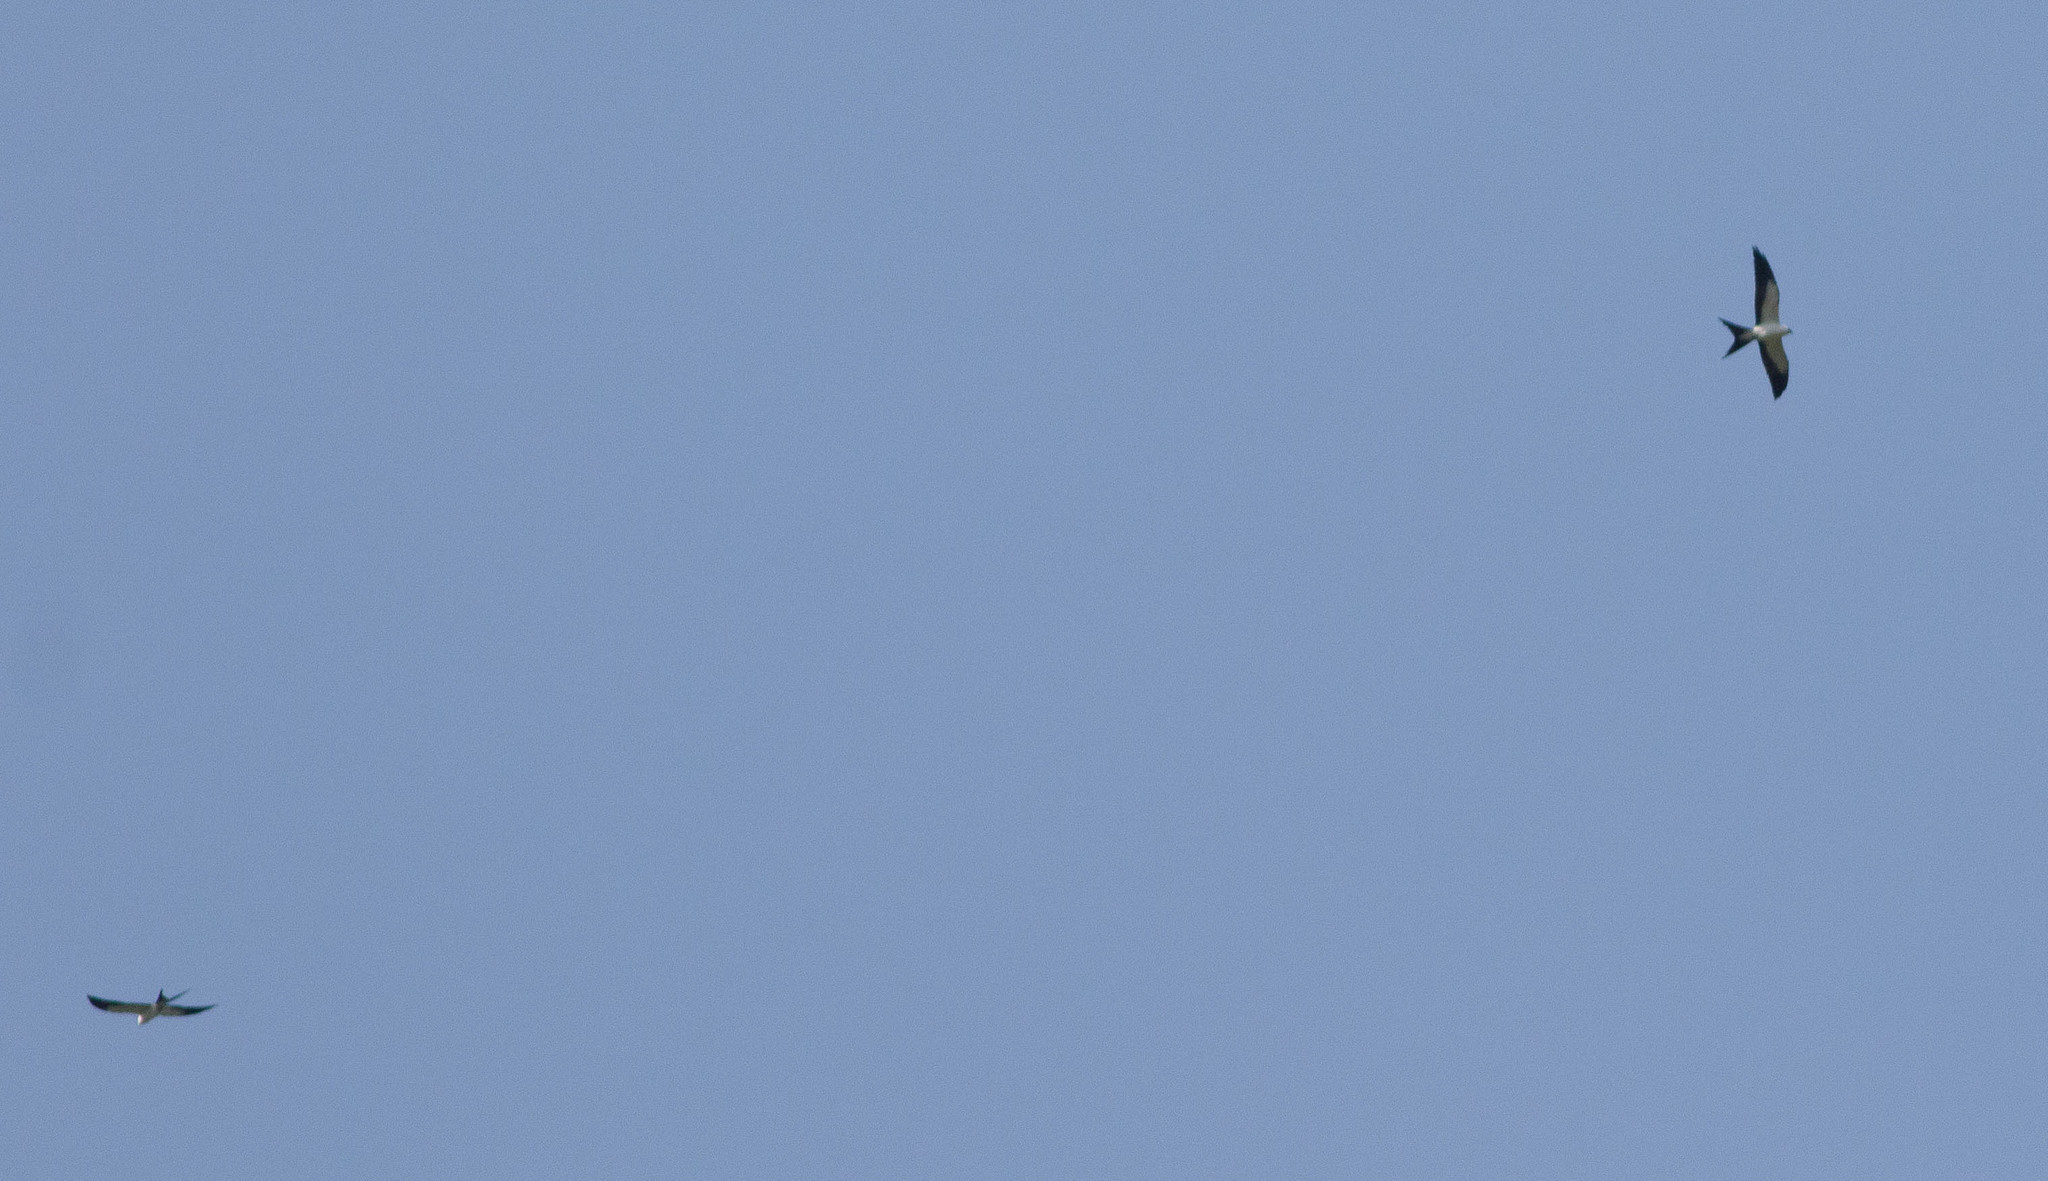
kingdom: Animalia
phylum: Chordata
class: Aves
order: Accipitriformes
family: Accipitridae
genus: Elanoides
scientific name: Elanoides forficatus
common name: Swallow-tailed kite
